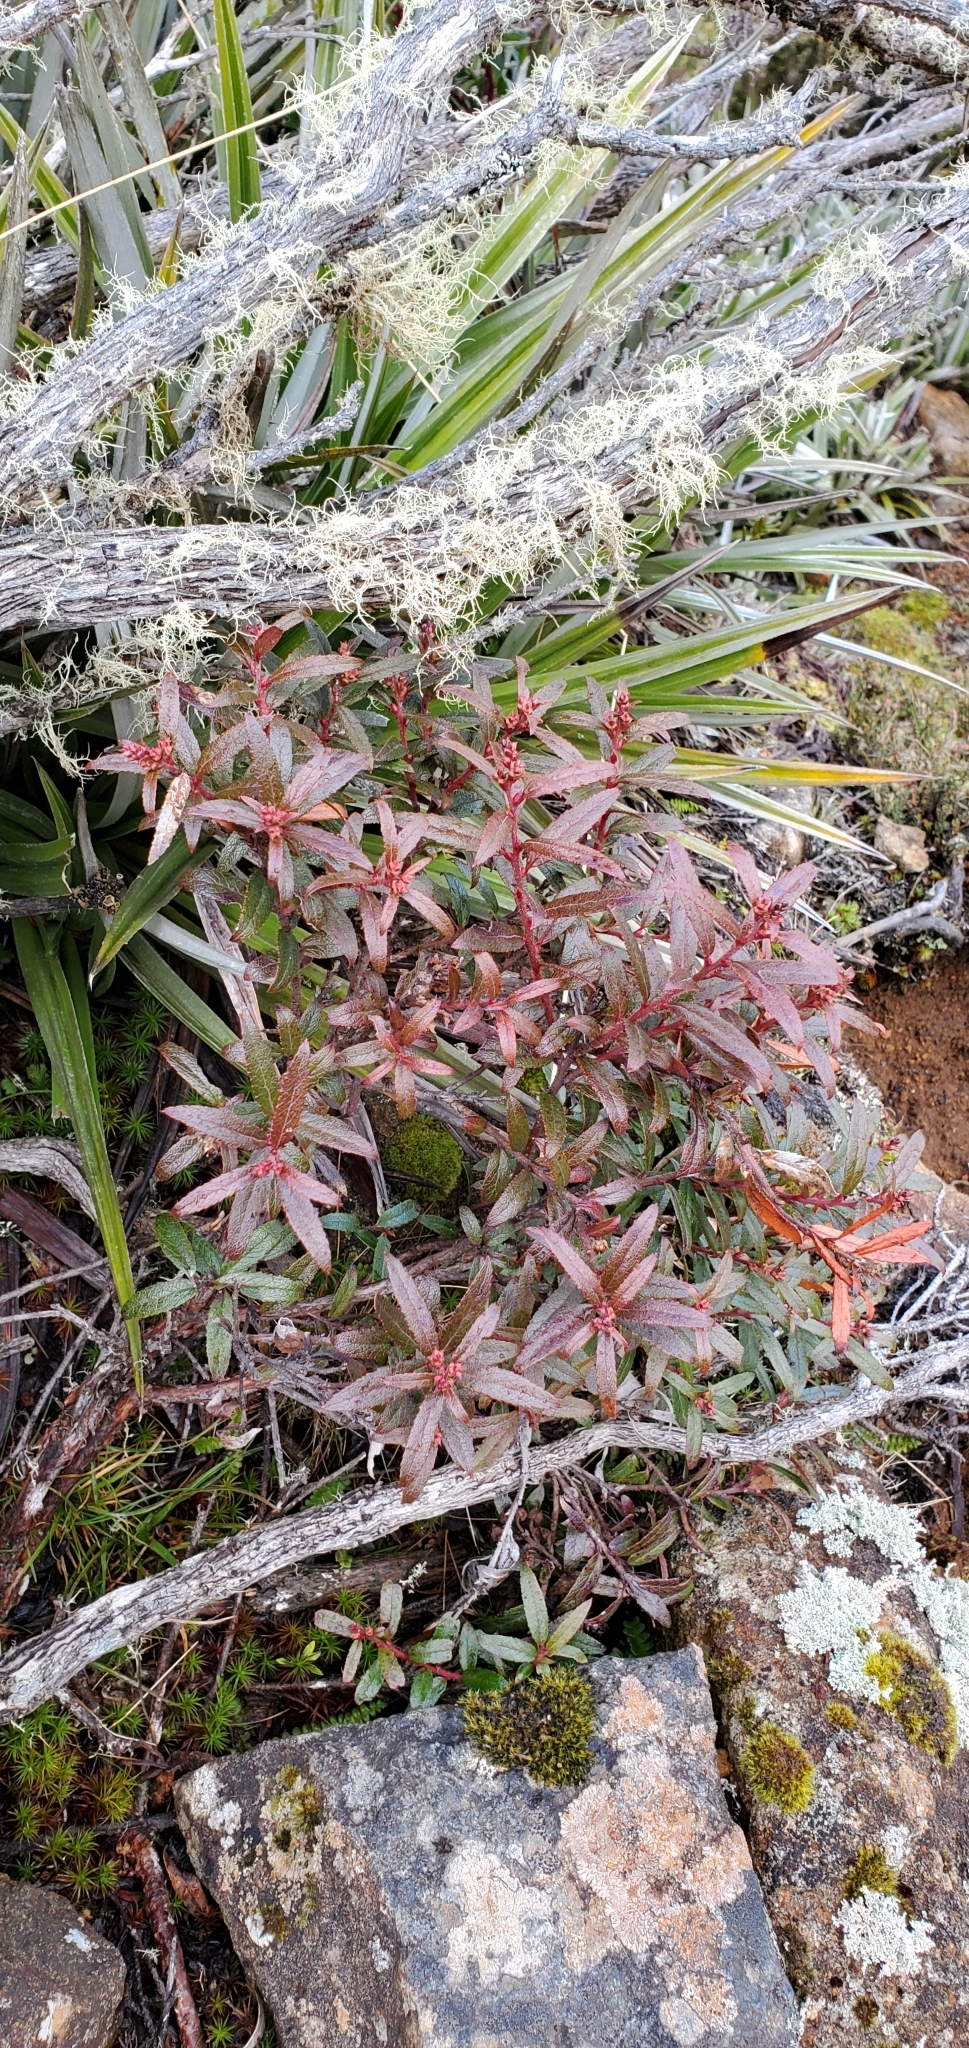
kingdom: Plantae
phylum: Tracheophyta
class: Magnoliopsida
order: Ericales
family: Ericaceae
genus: Gaultheria
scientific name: Gaultheria hispida
